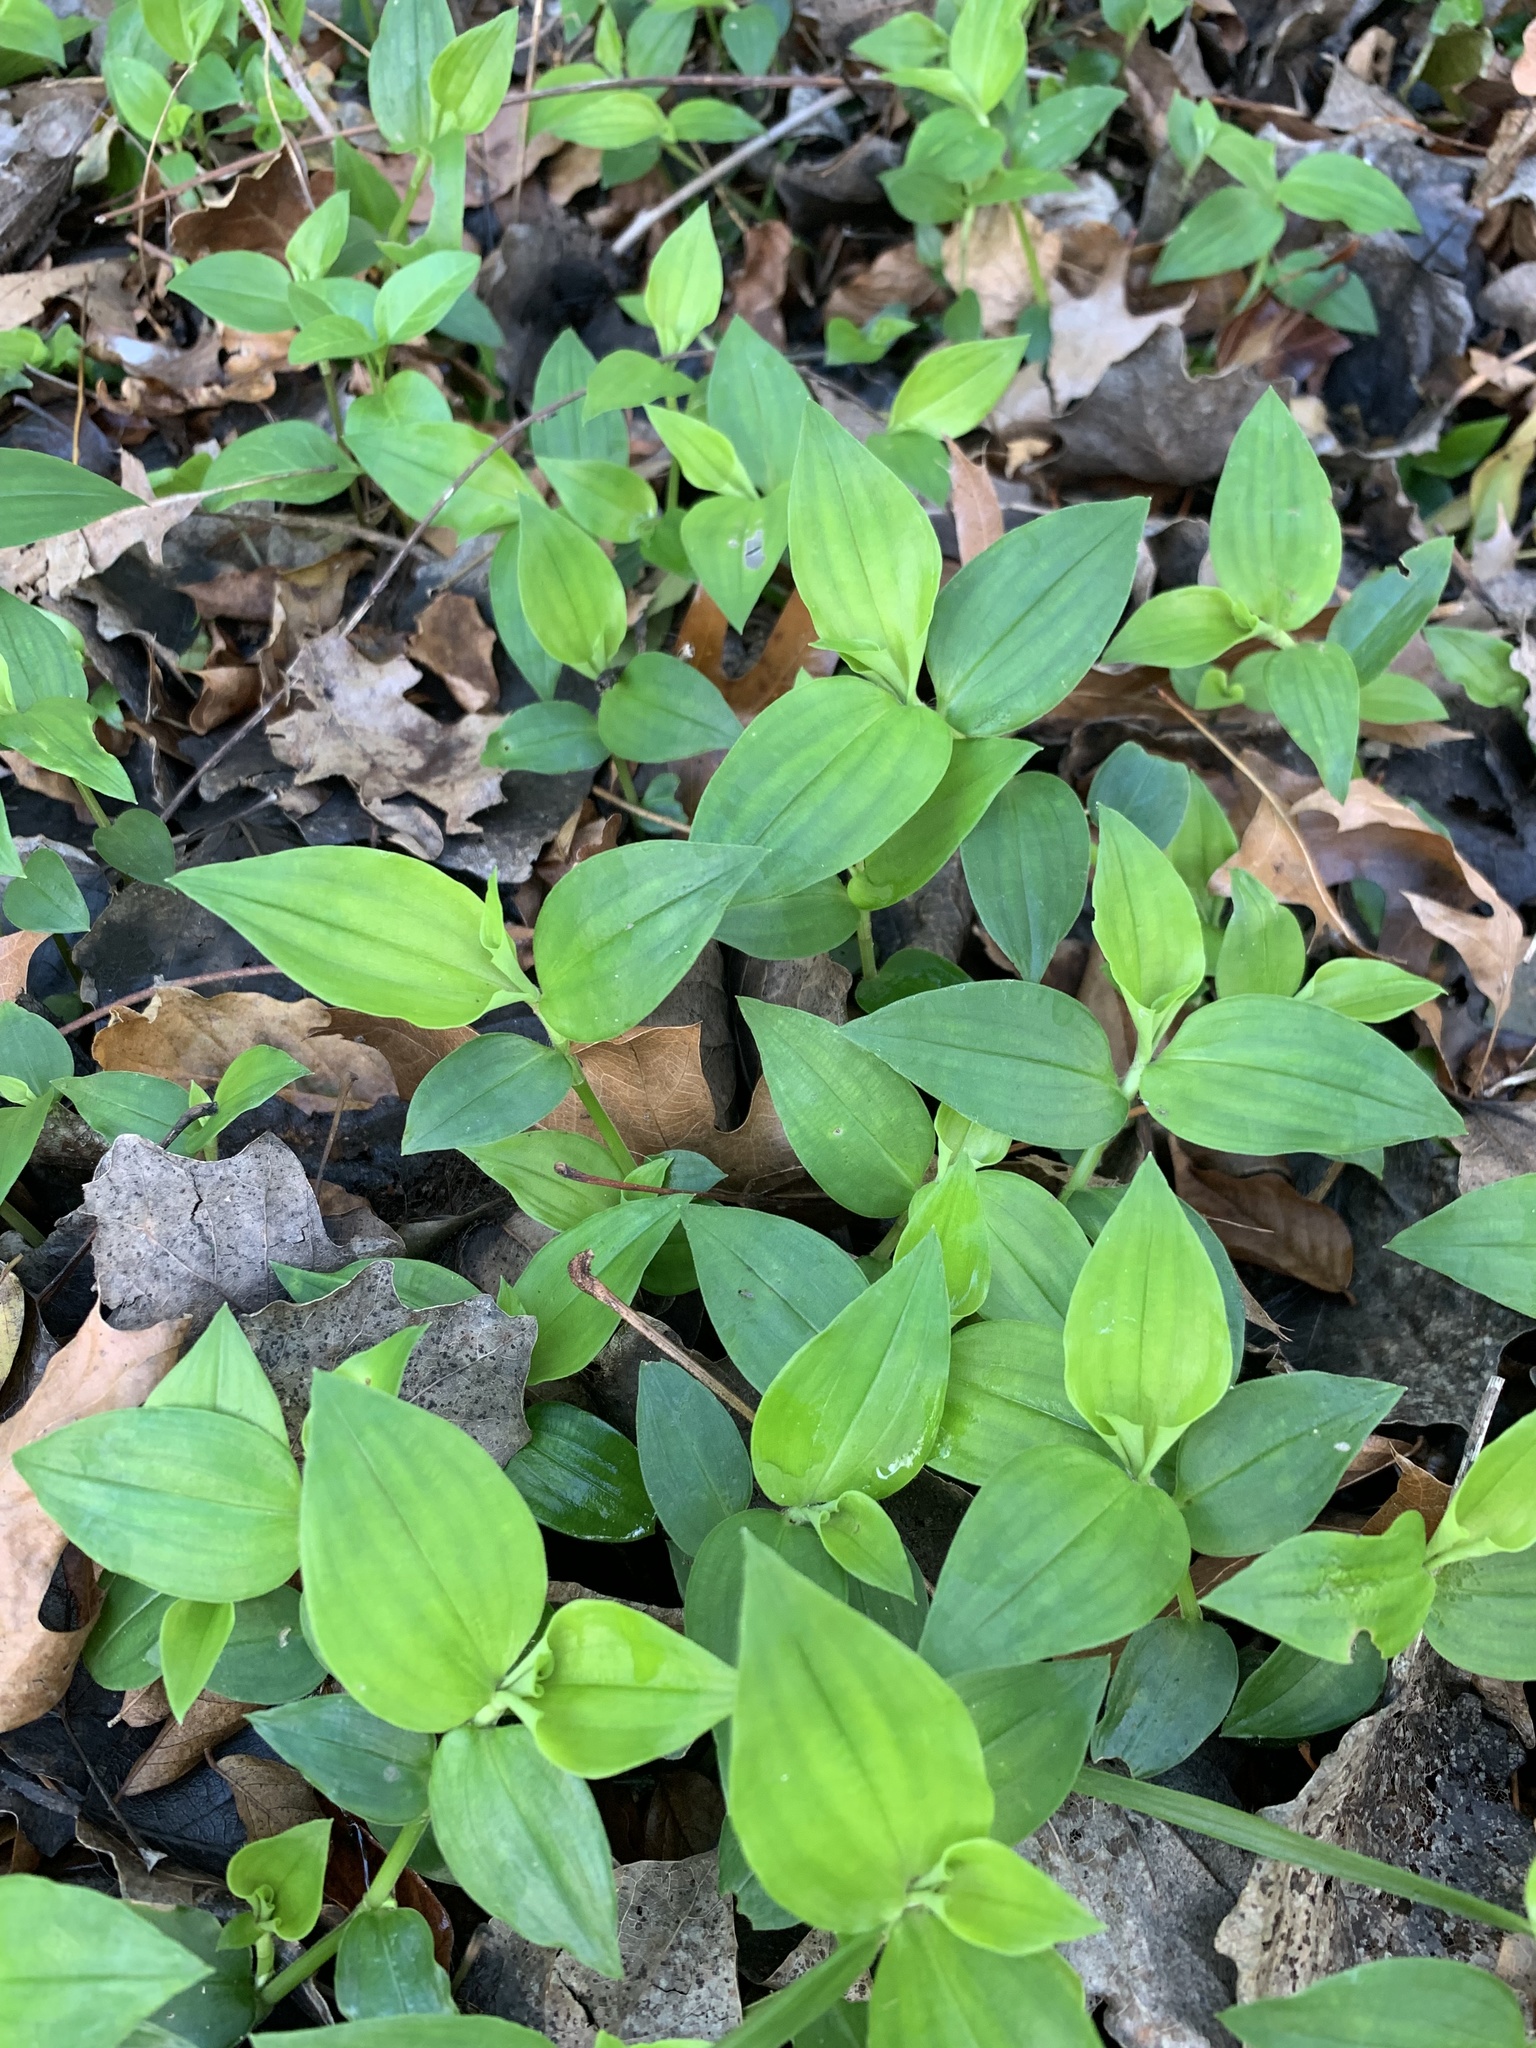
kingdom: Plantae
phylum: Tracheophyta
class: Liliopsida
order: Commelinales
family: Commelinaceae
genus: Tradescantia
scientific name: Tradescantia fluminensis
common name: Wandering-jew
